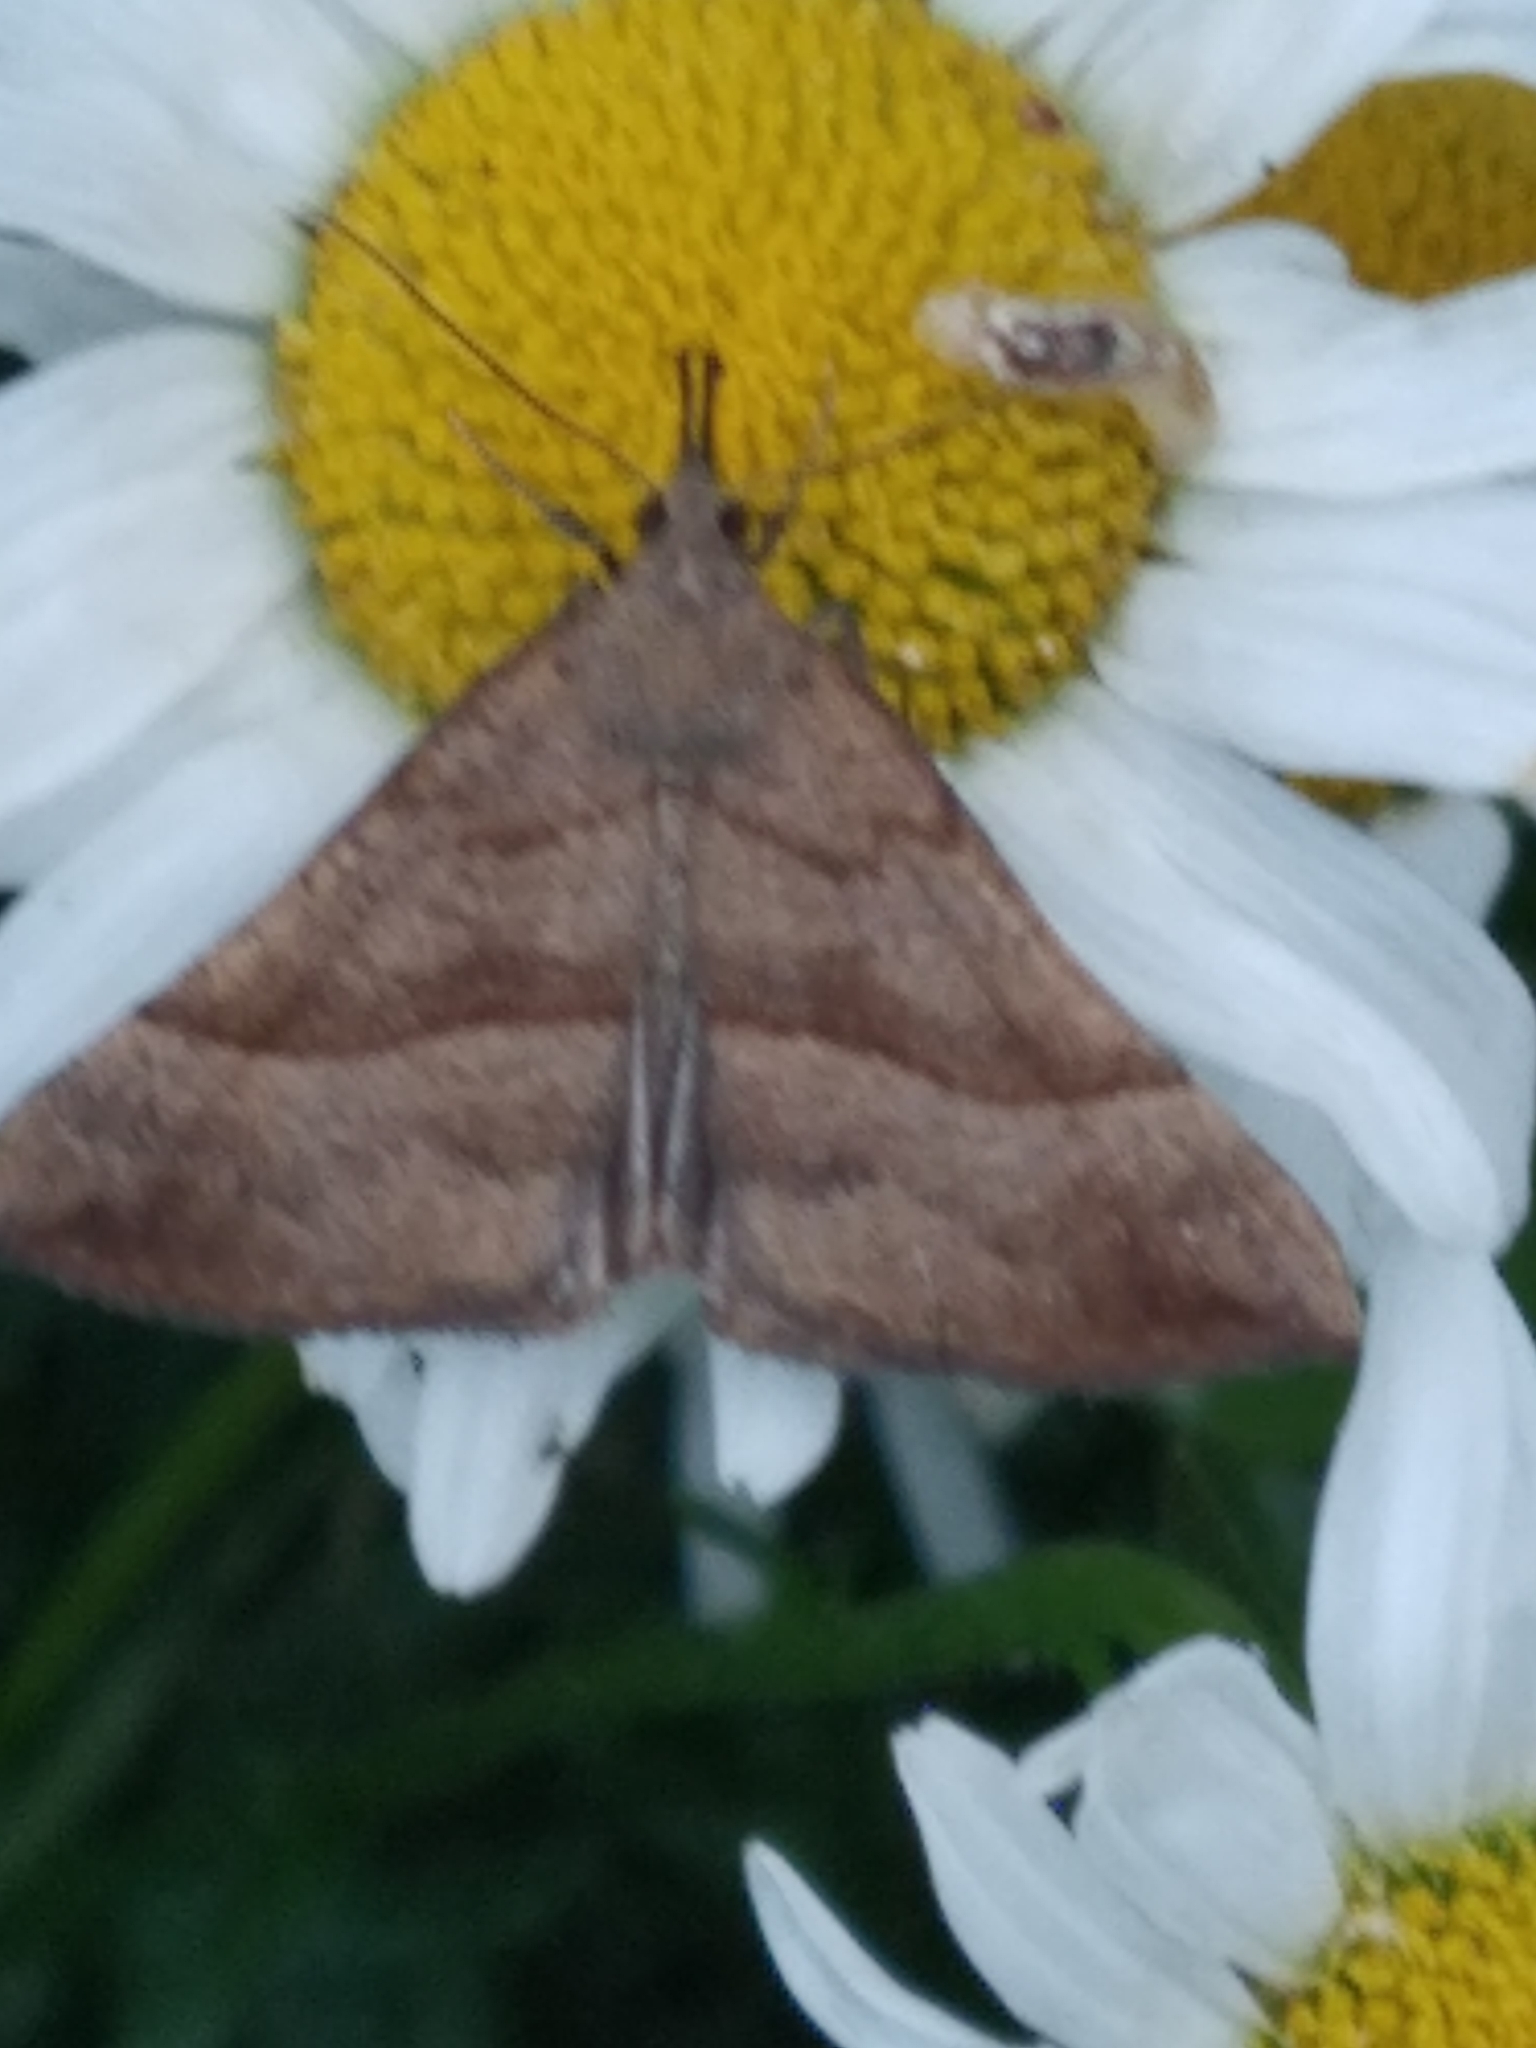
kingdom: Animalia
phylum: Arthropoda
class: Insecta
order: Lepidoptera
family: Erebidae
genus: Hypena
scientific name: Hypena proboscidalis
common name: Snout
